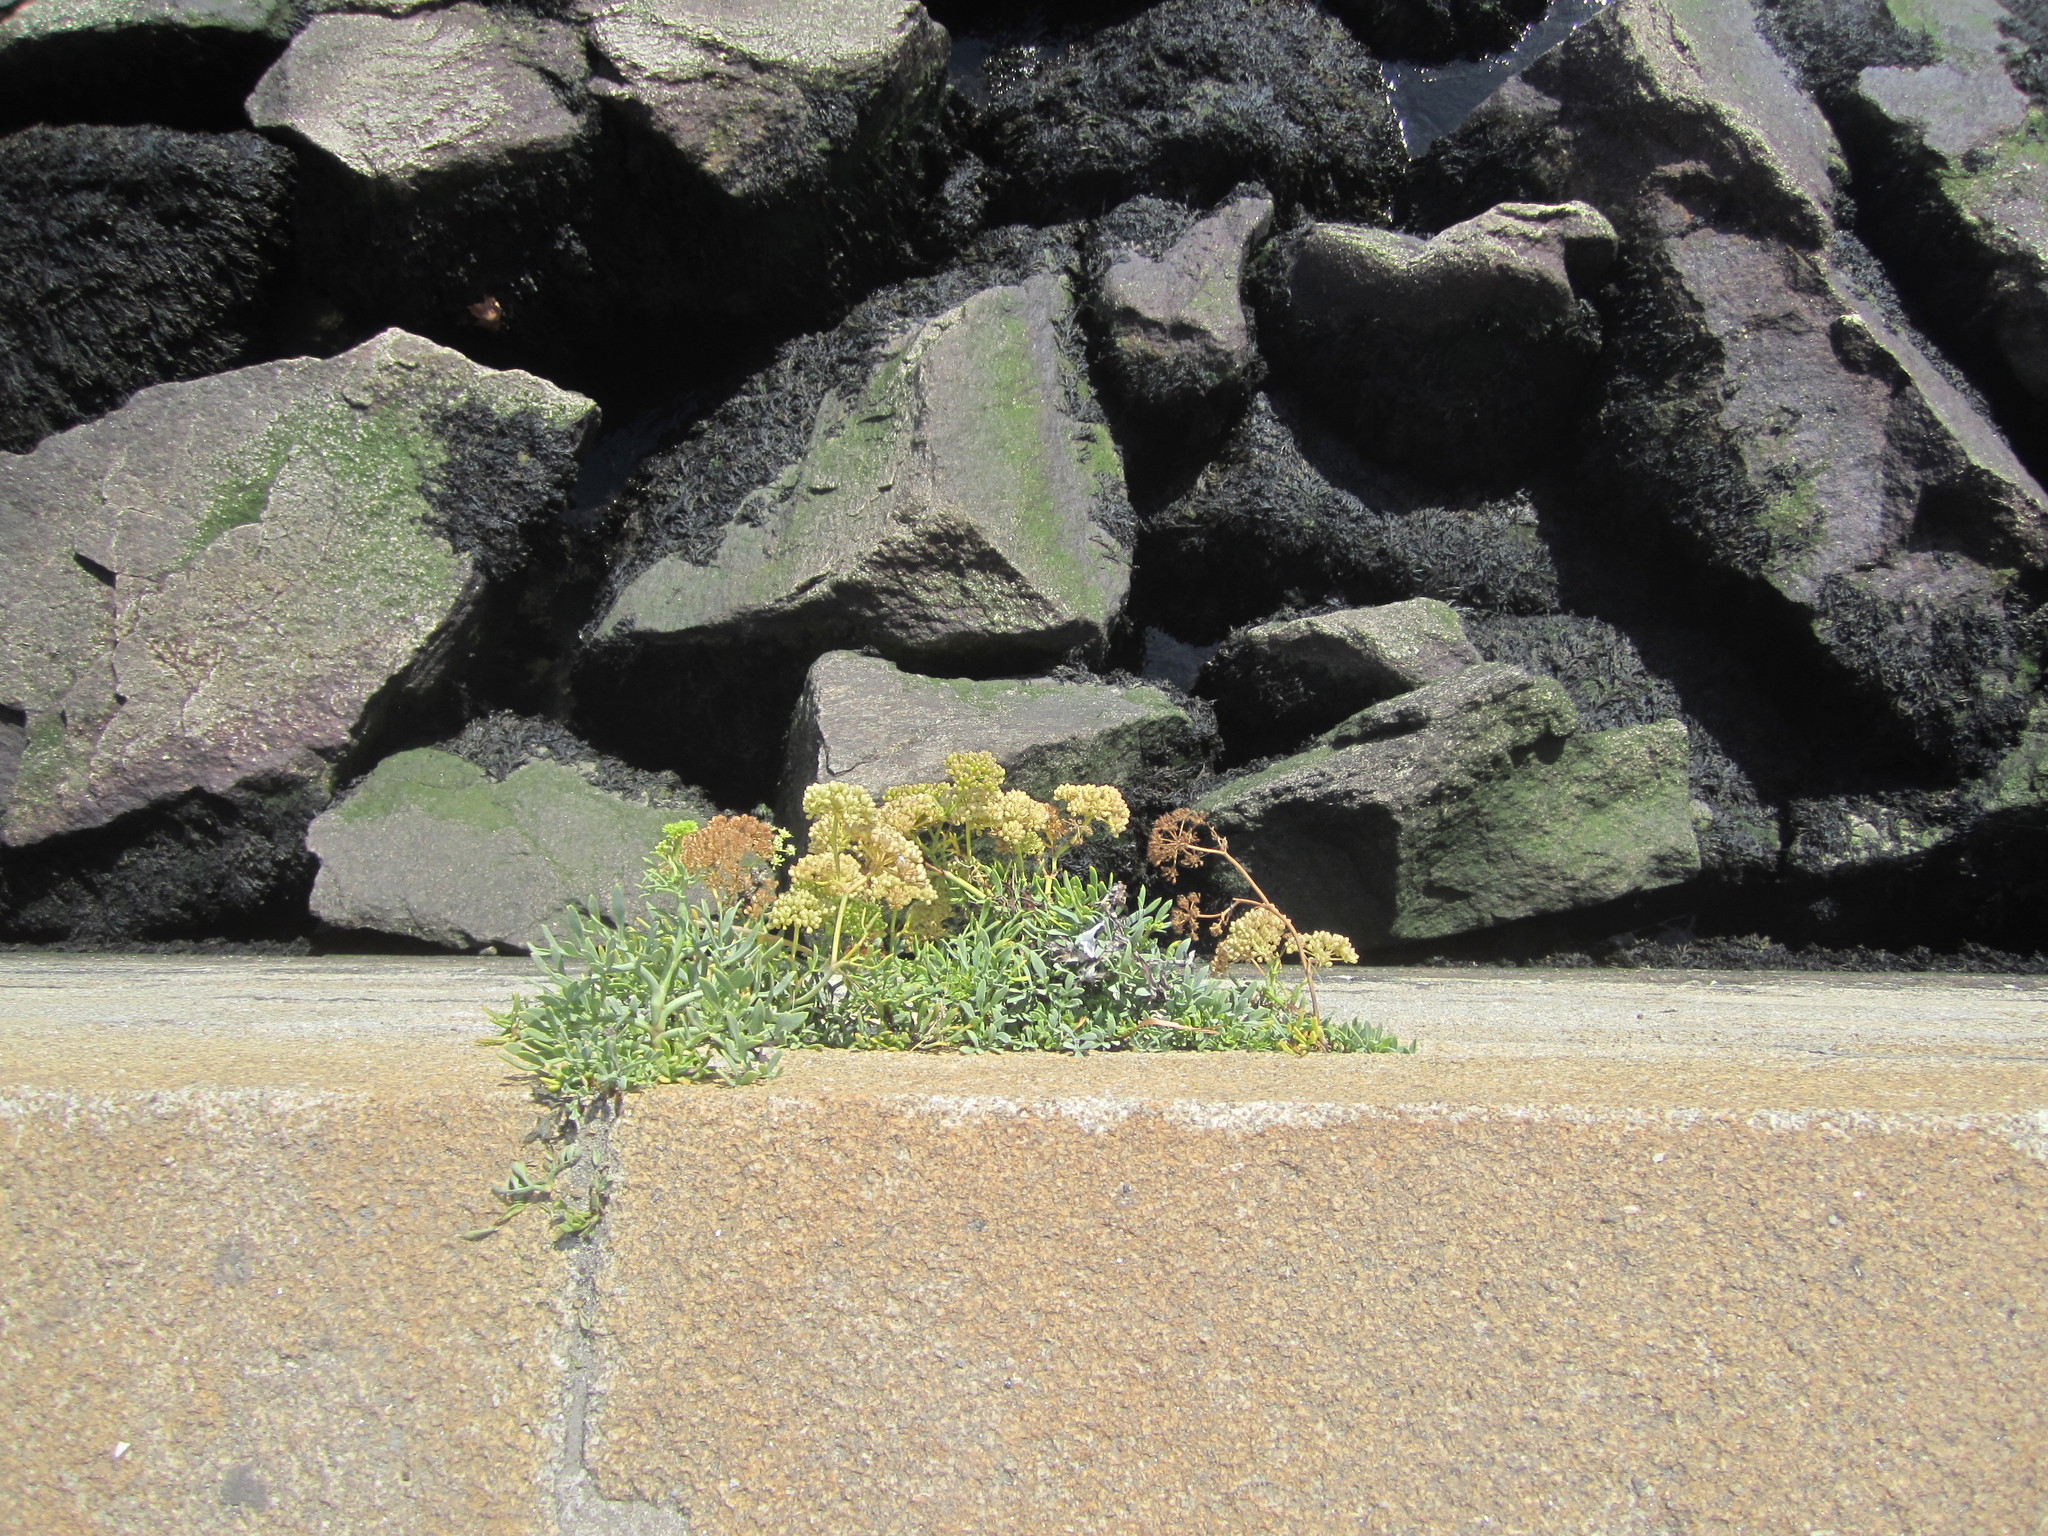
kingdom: Plantae
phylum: Tracheophyta
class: Magnoliopsida
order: Apiales
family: Apiaceae
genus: Crithmum
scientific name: Crithmum maritimum
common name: Rock samphire
